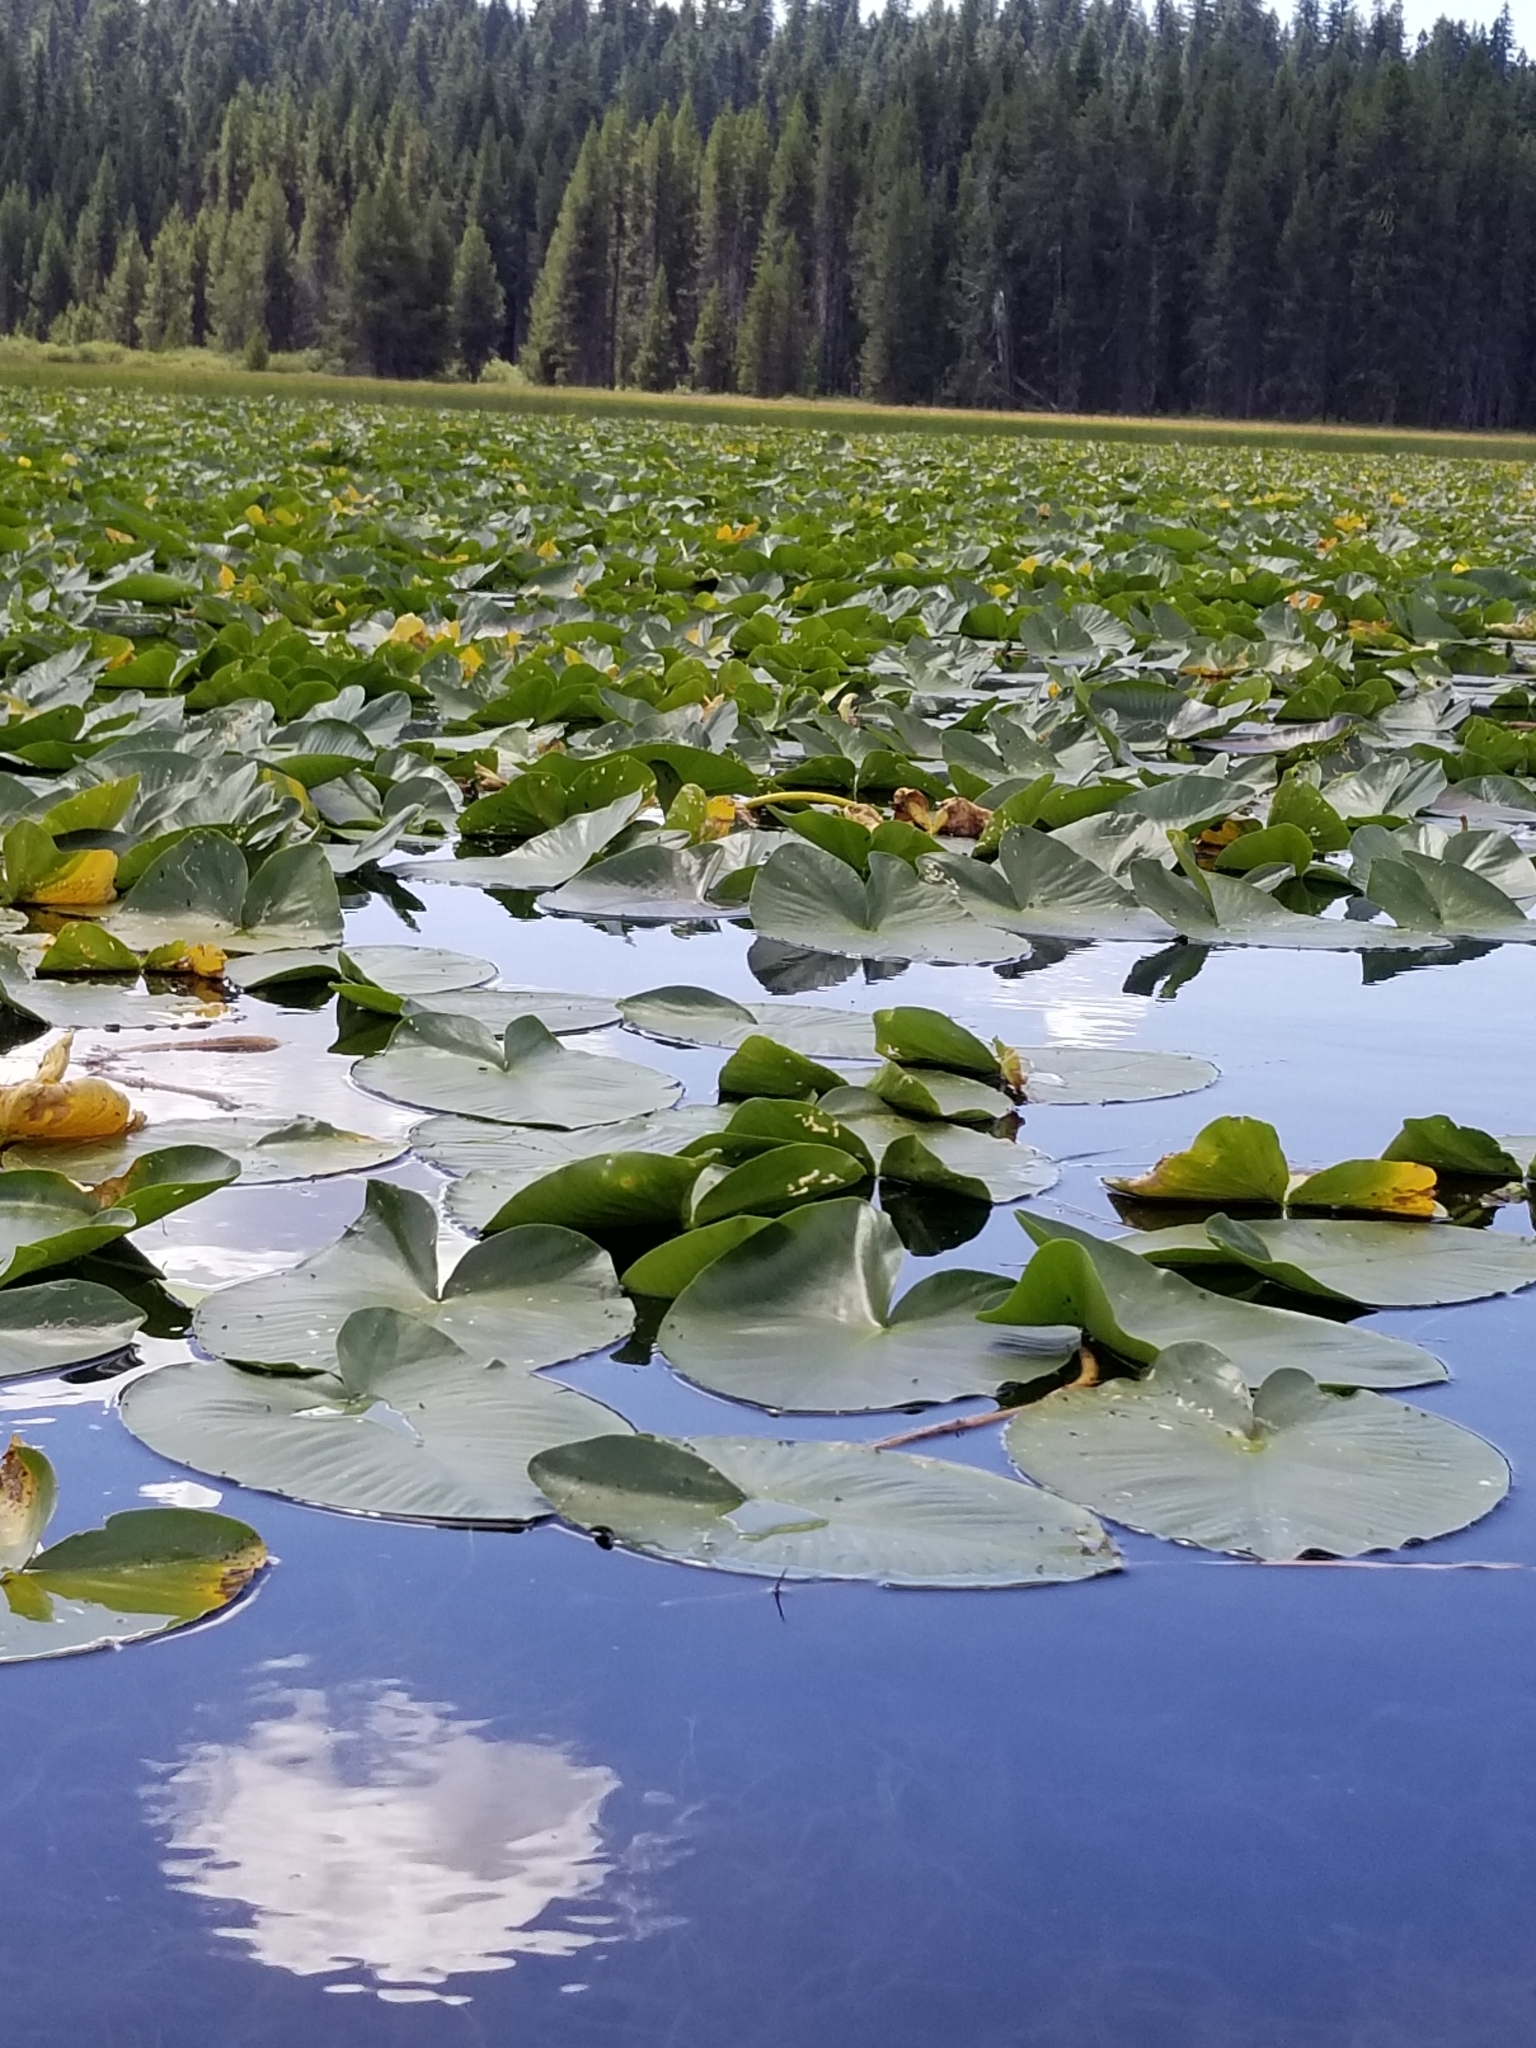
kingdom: Plantae
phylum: Tracheophyta
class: Magnoliopsida
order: Nymphaeales
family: Nymphaeaceae
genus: Nuphar
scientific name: Nuphar polysepala
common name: Rocky mountain cow-lily
